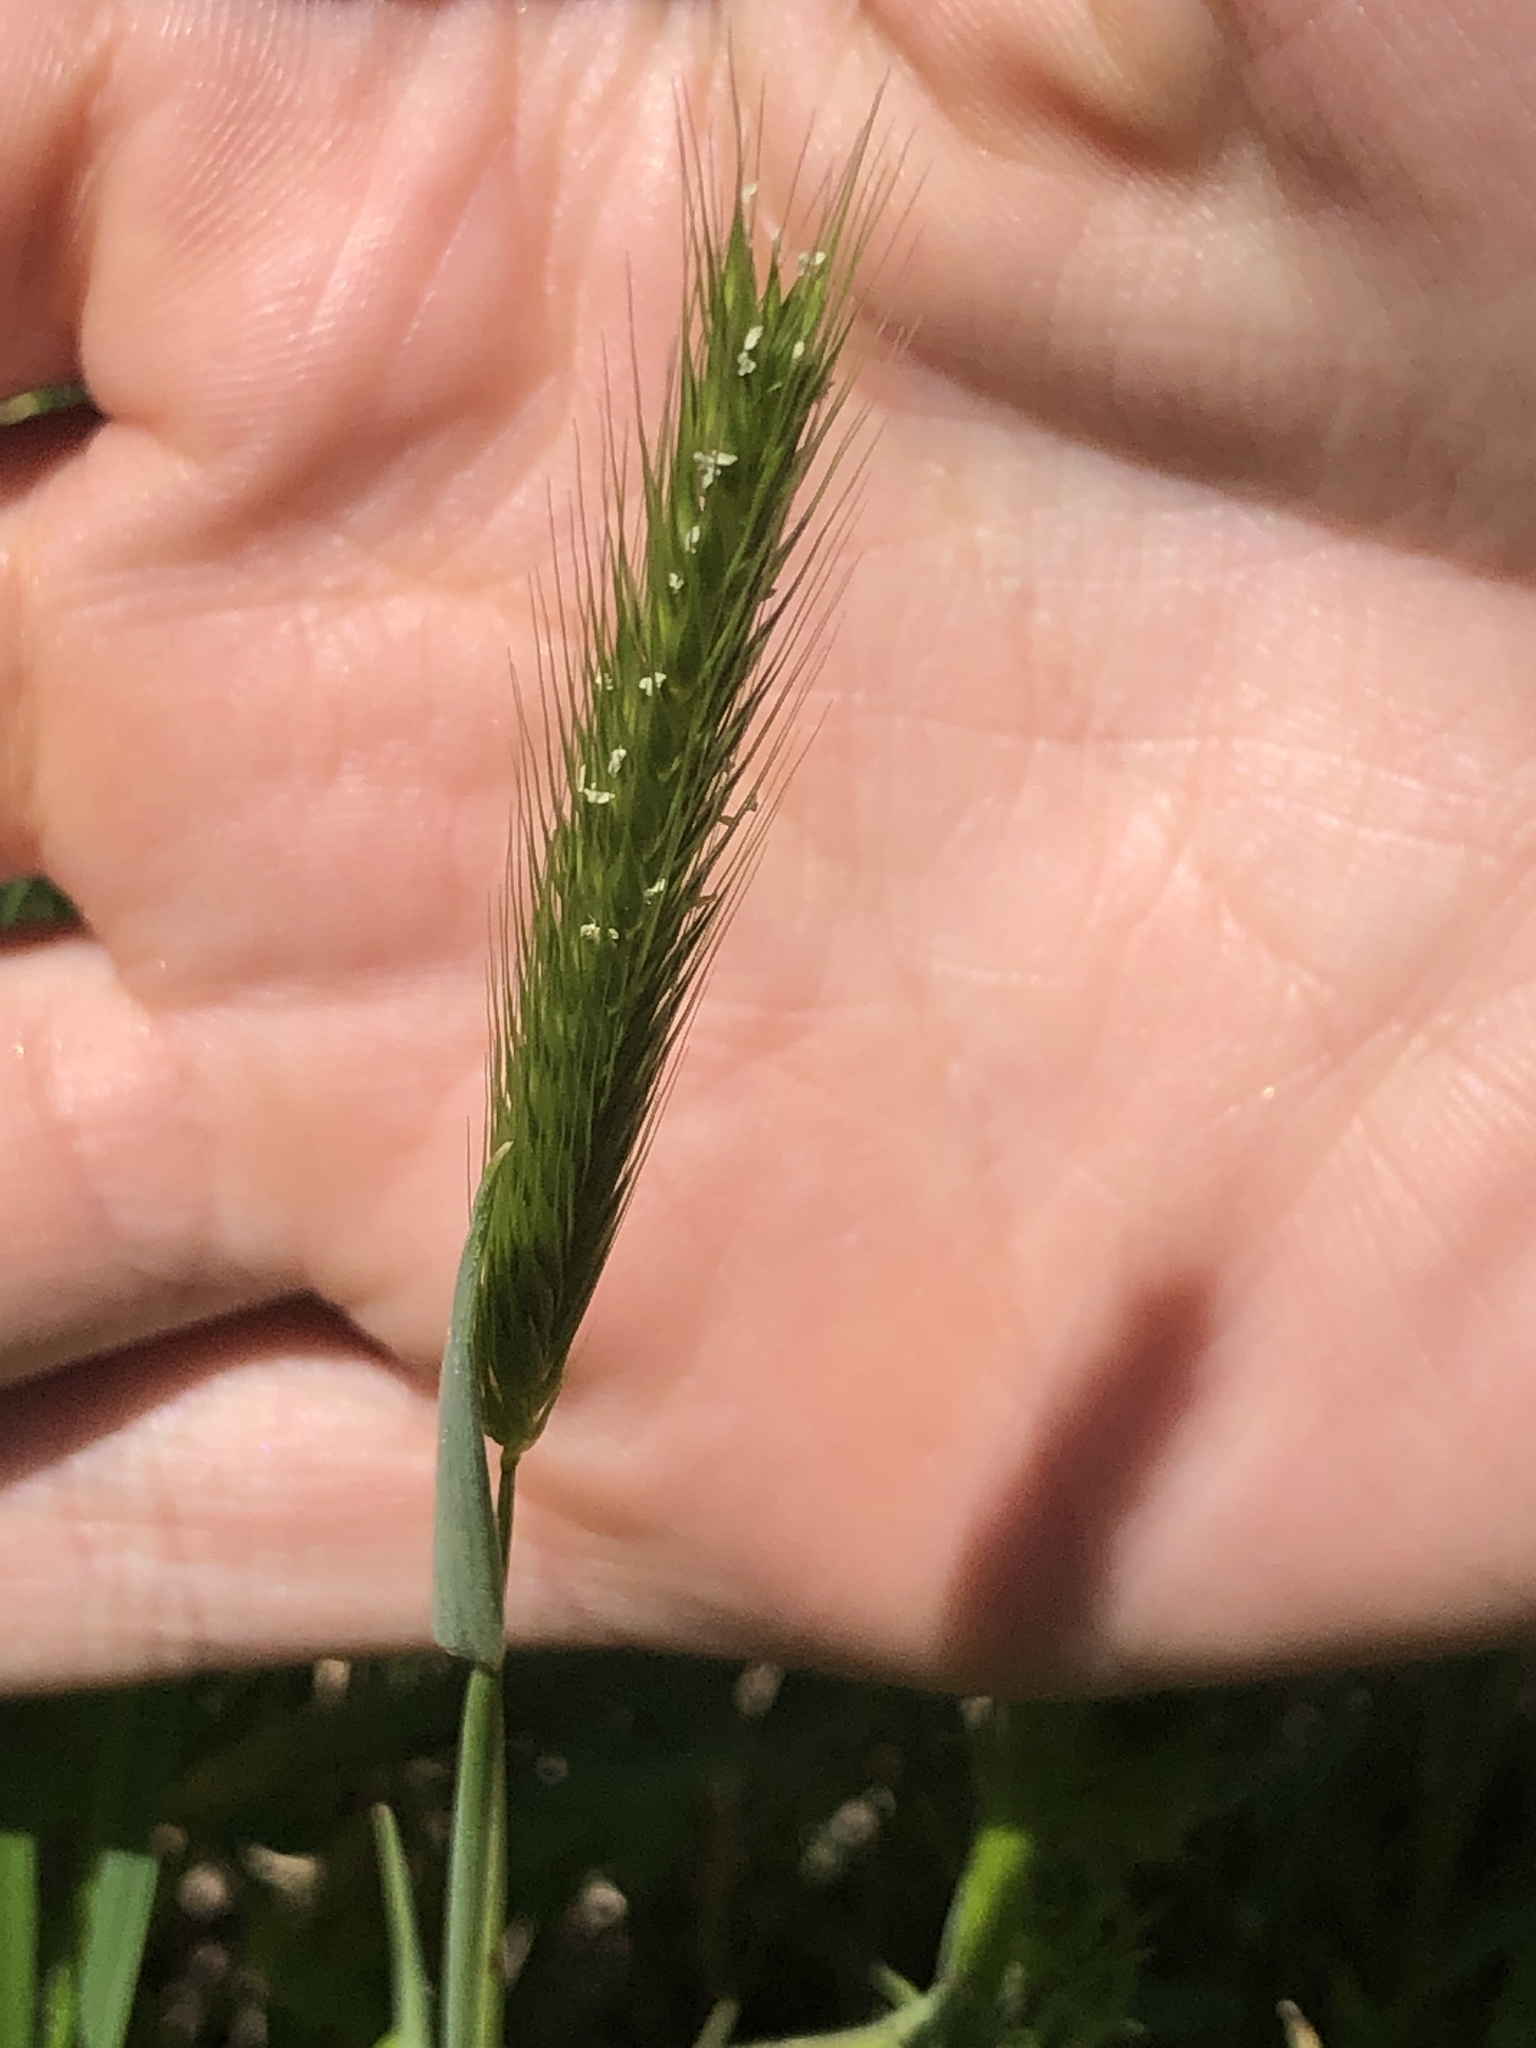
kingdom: Plantae
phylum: Tracheophyta
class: Liliopsida
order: Poales
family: Poaceae
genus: Hordeum
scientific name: Hordeum pusillum
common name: Little barley
